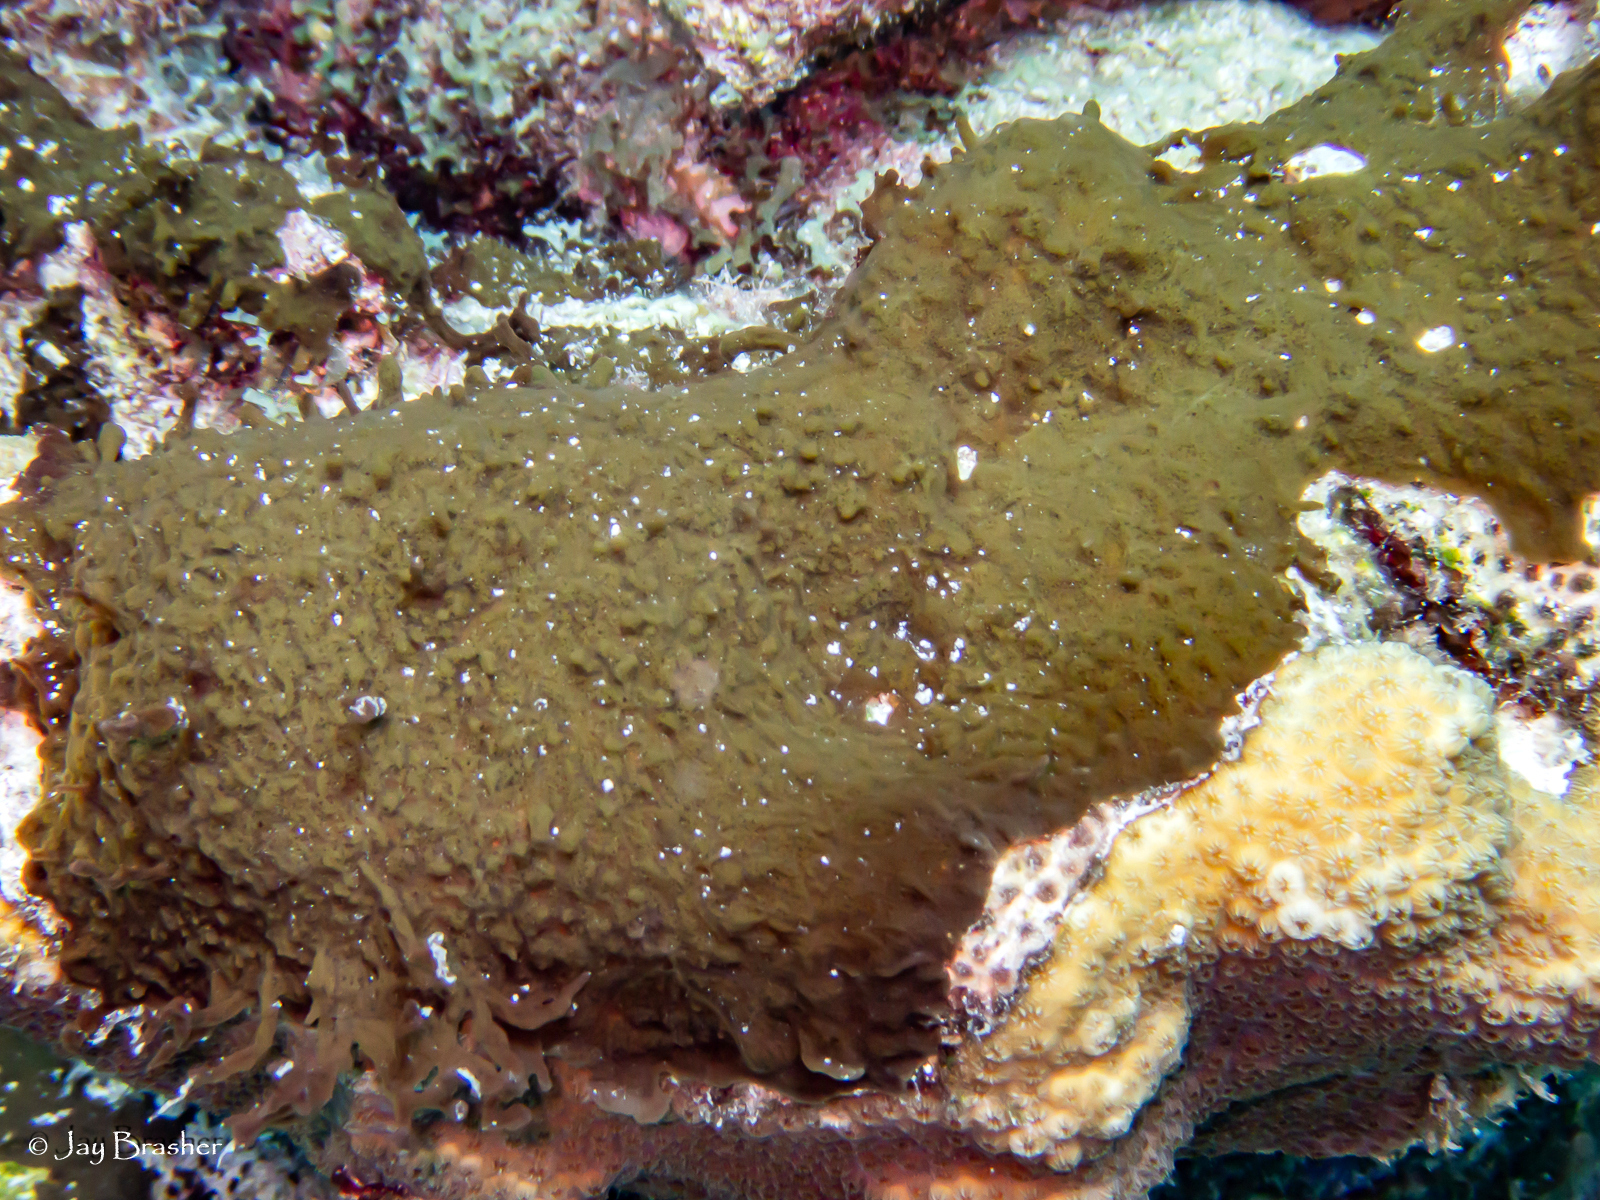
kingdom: Animalia
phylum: Porifera
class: Demospongiae
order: Bubarida
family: Dictyonellidae
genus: Dictyonella
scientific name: Dictyonella funicularis
